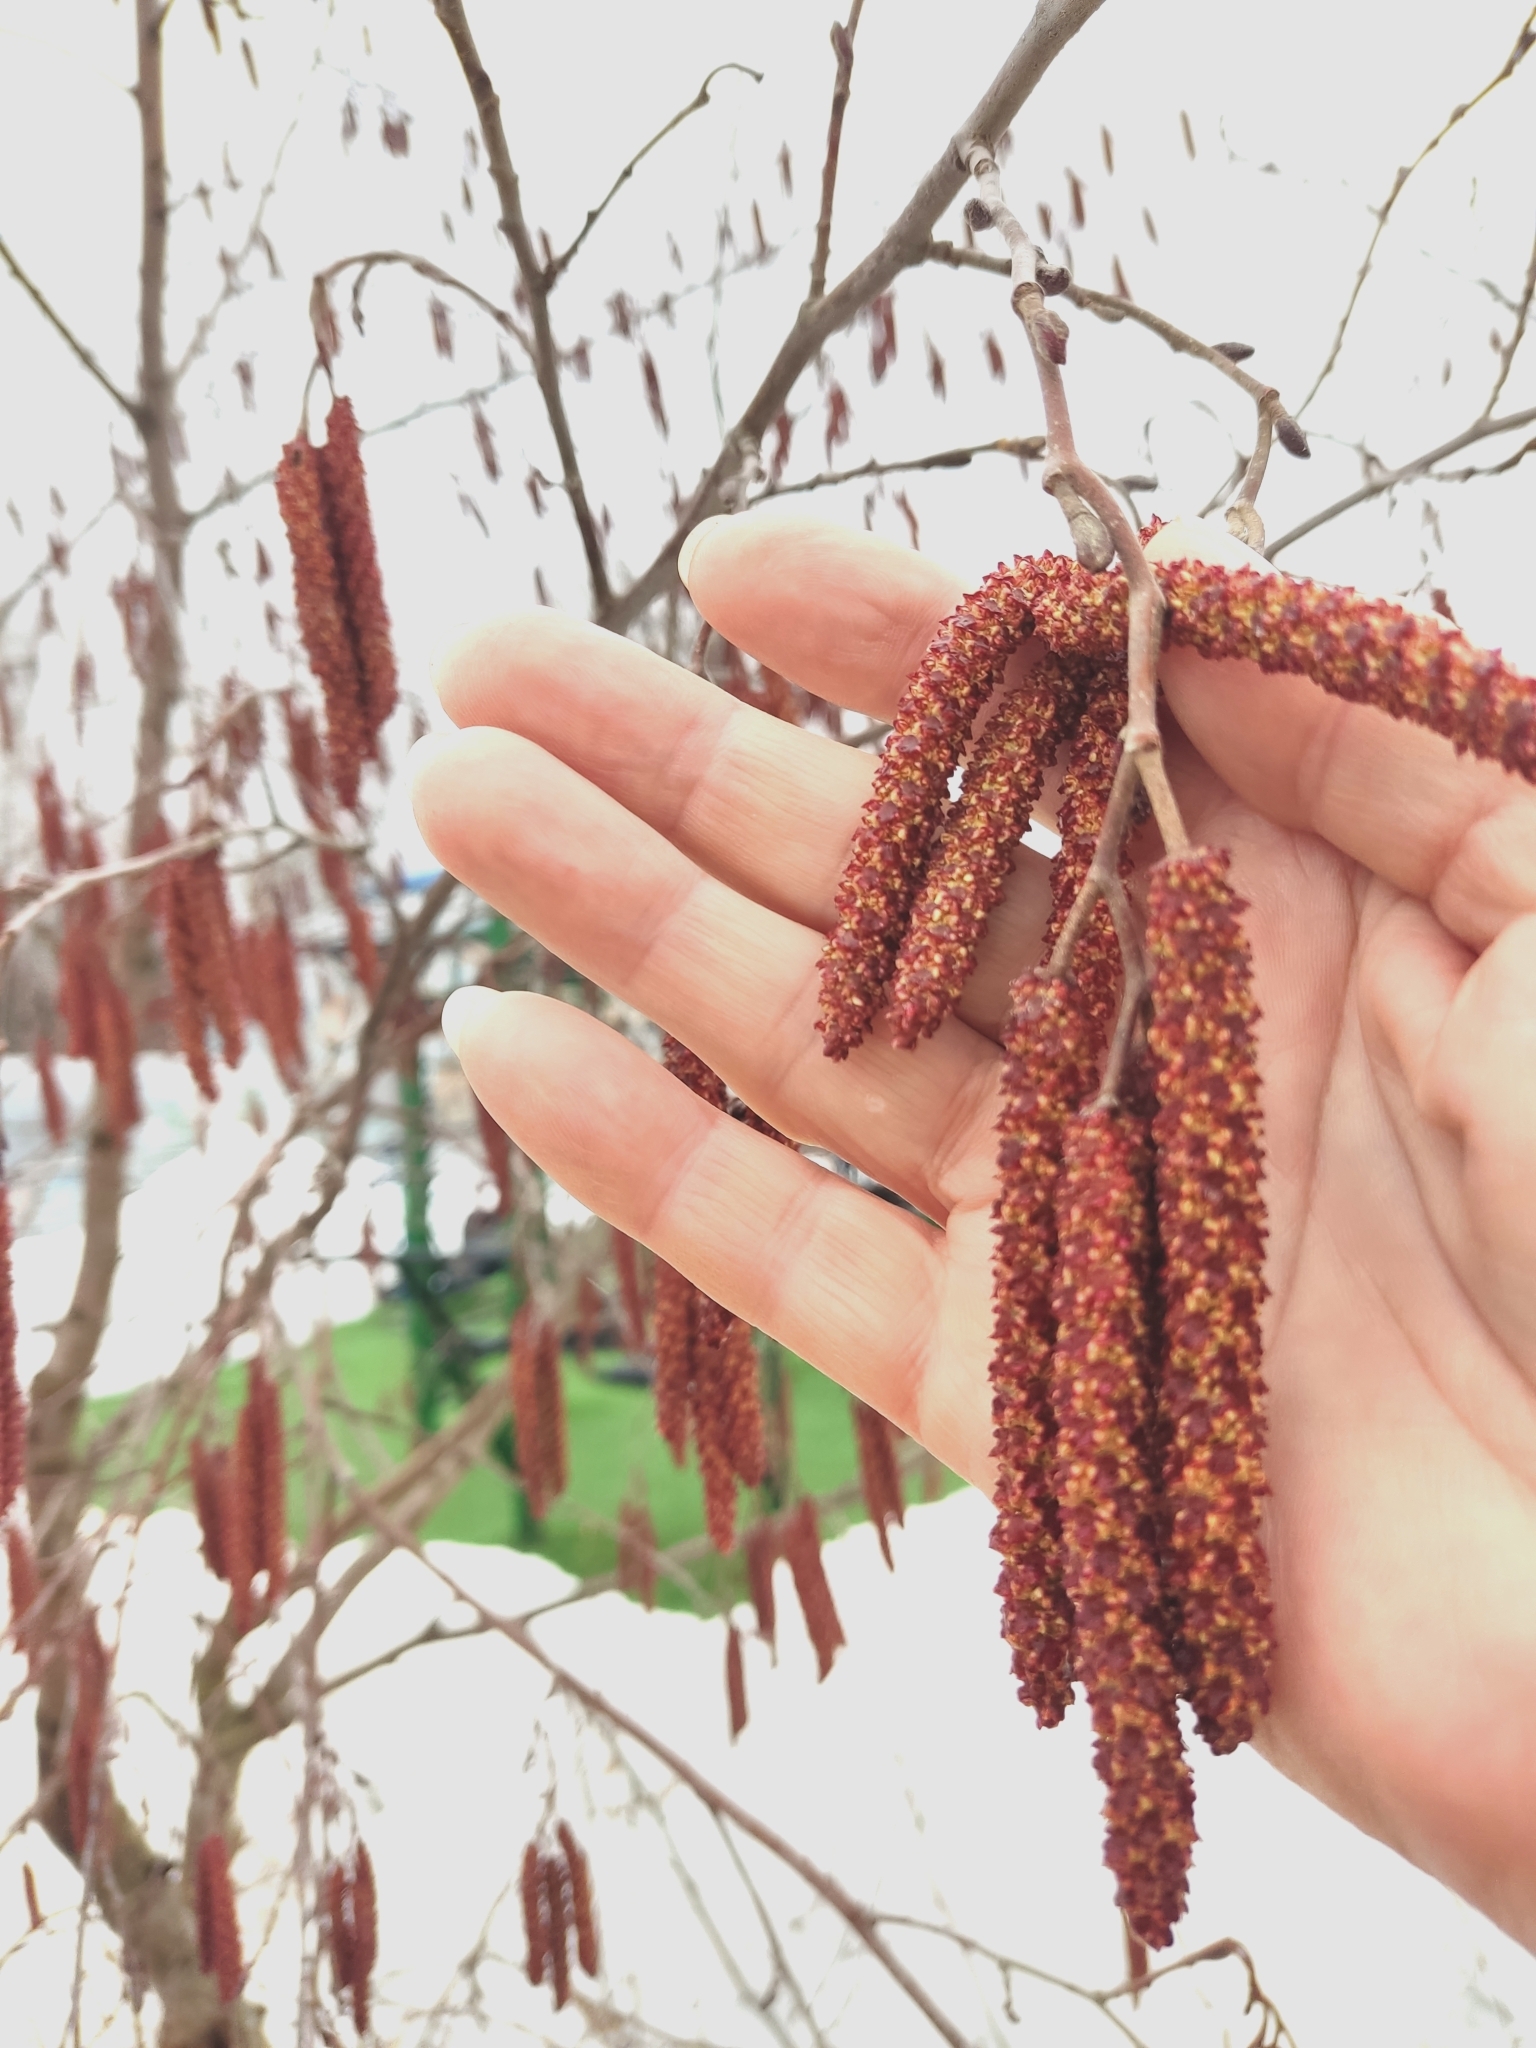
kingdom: Plantae
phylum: Tracheophyta
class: Magnoliopsida
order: Fagales
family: Betulaceae
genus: Alnus
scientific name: Alnus incana
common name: Grey alder
